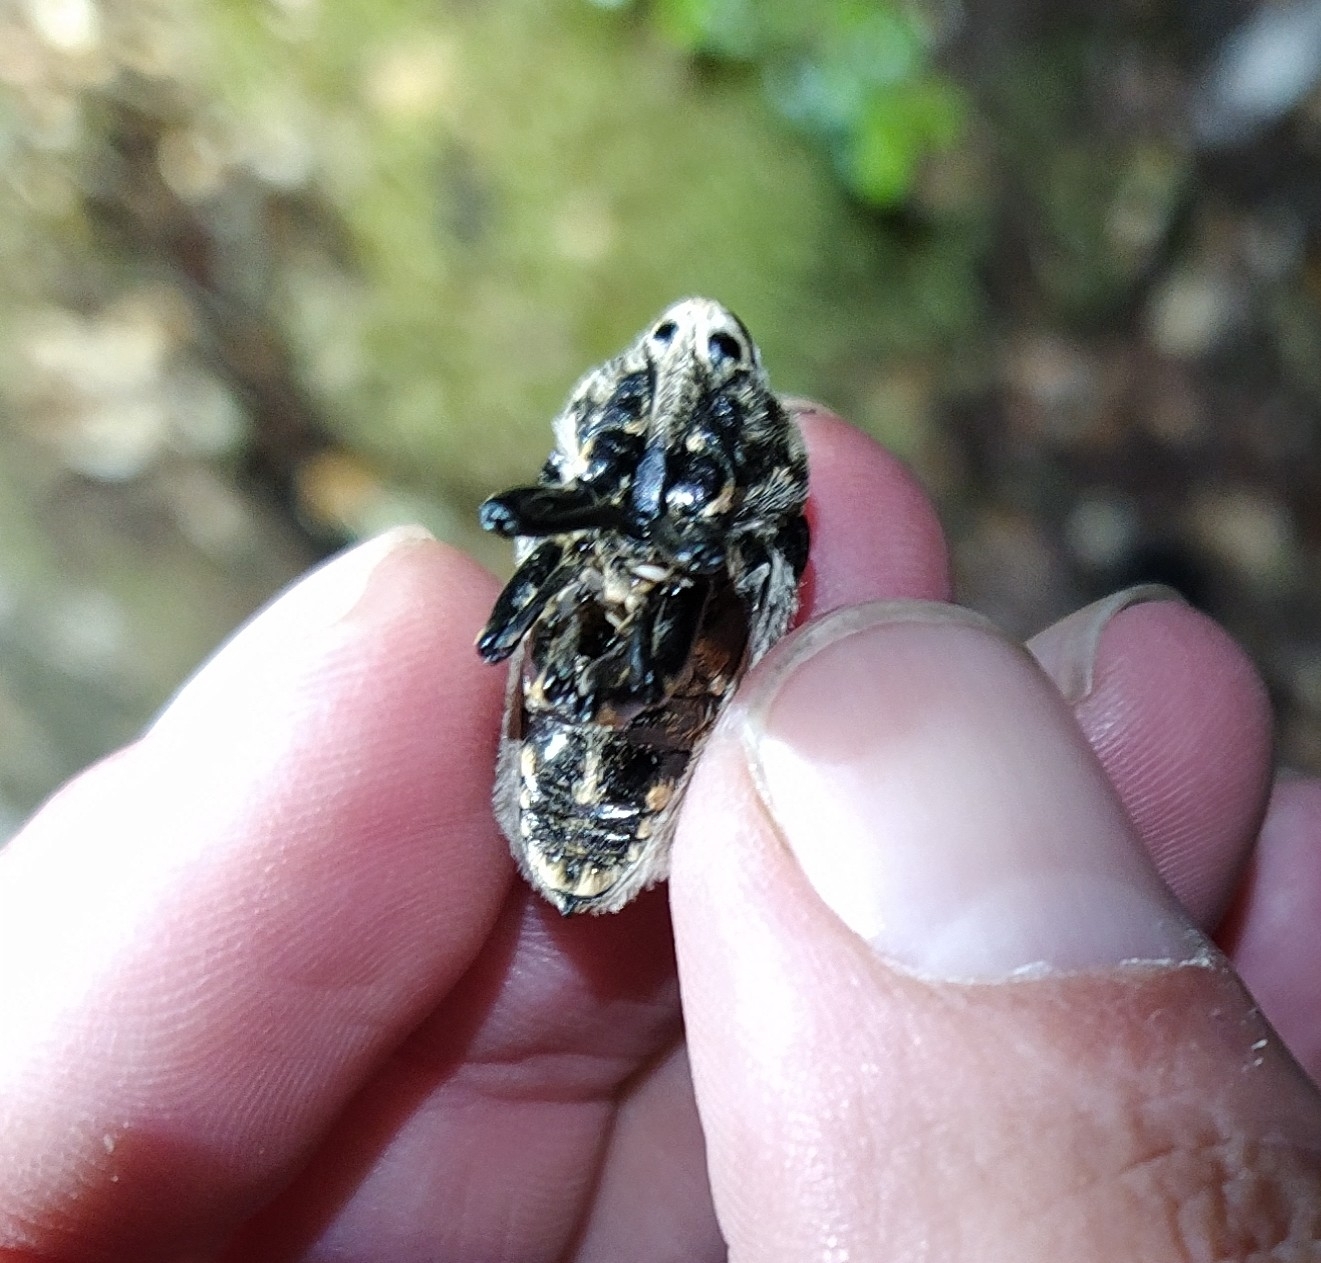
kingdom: Animalia
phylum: Arthropoda
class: Insecta
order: Coleoptera
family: Curculionidae
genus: Rhynchodes
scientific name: Rhynchodes ursus
